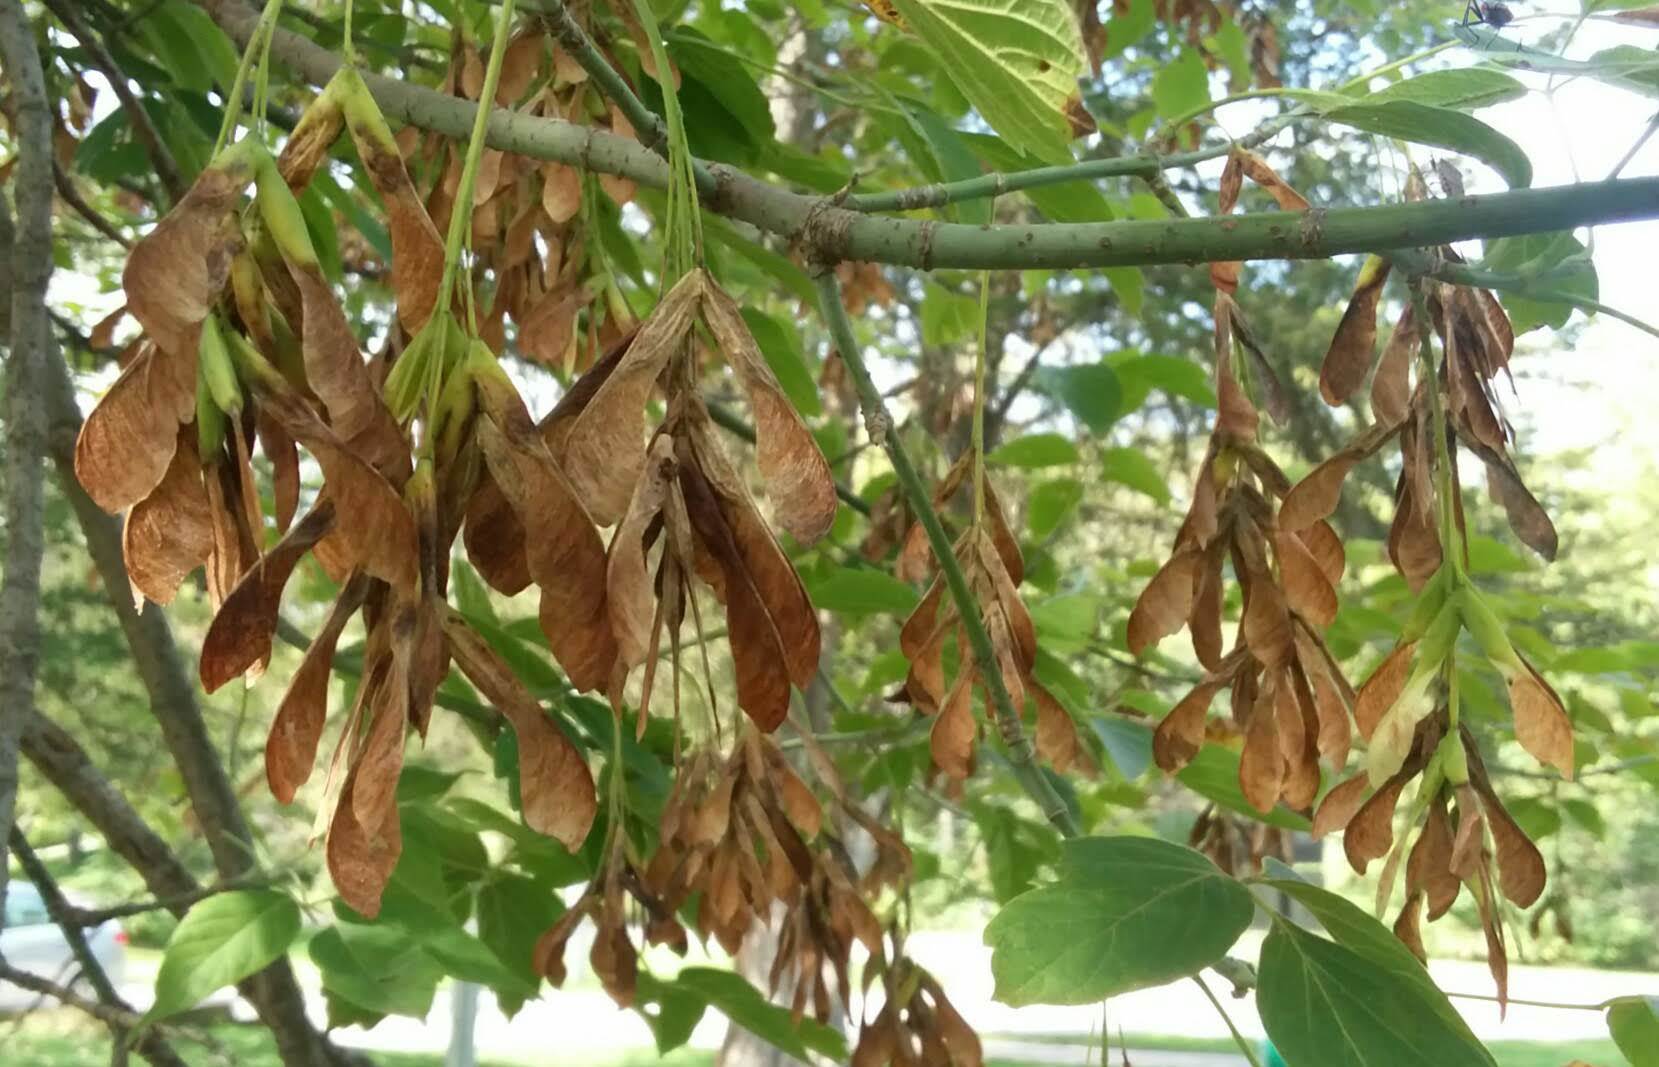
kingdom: Plantae
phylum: Tracheophyta
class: Magnoliopsida
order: Sapindales
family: Sapindaceae
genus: Acer
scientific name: Acer negundo
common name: Ashleaf maple
